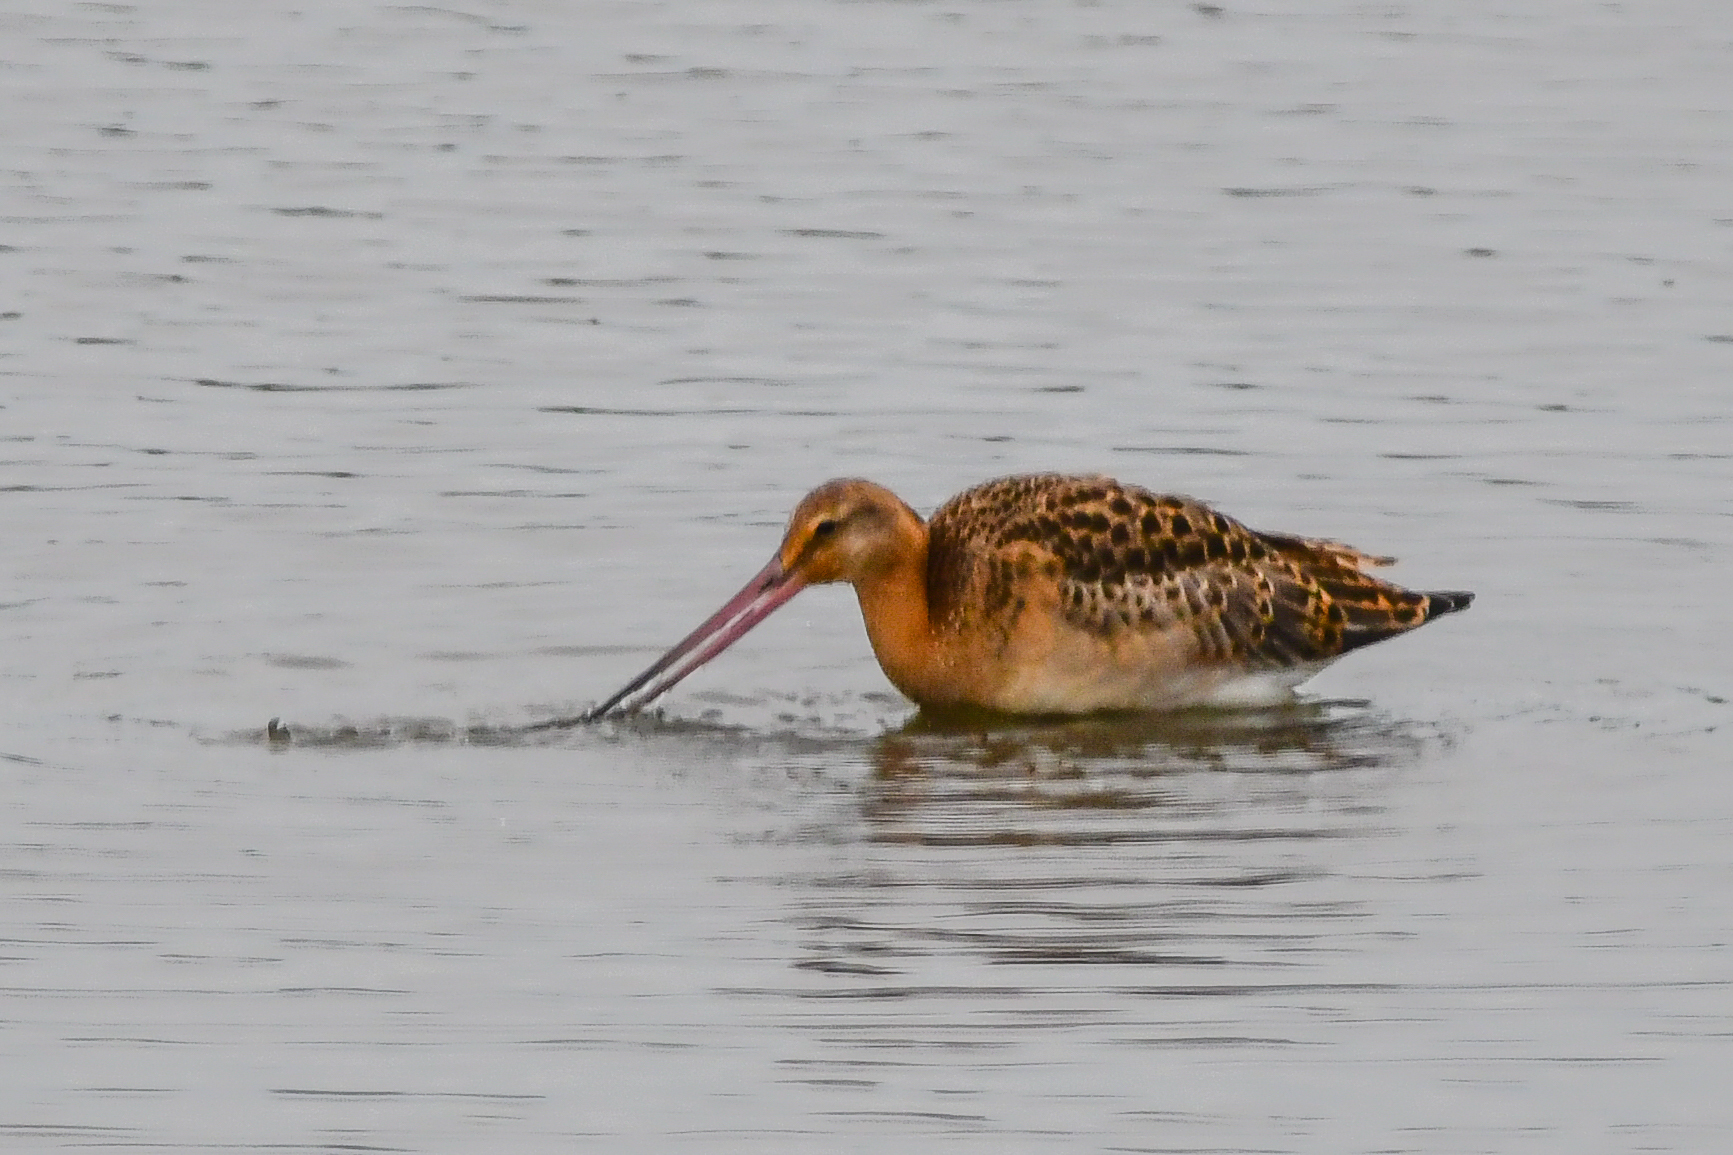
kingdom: Animalia
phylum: Chordata
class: Aves
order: Charadriiformes
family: Scolopacidae
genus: Limosa
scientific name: Limosa limosa
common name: Black-tailed godwit
